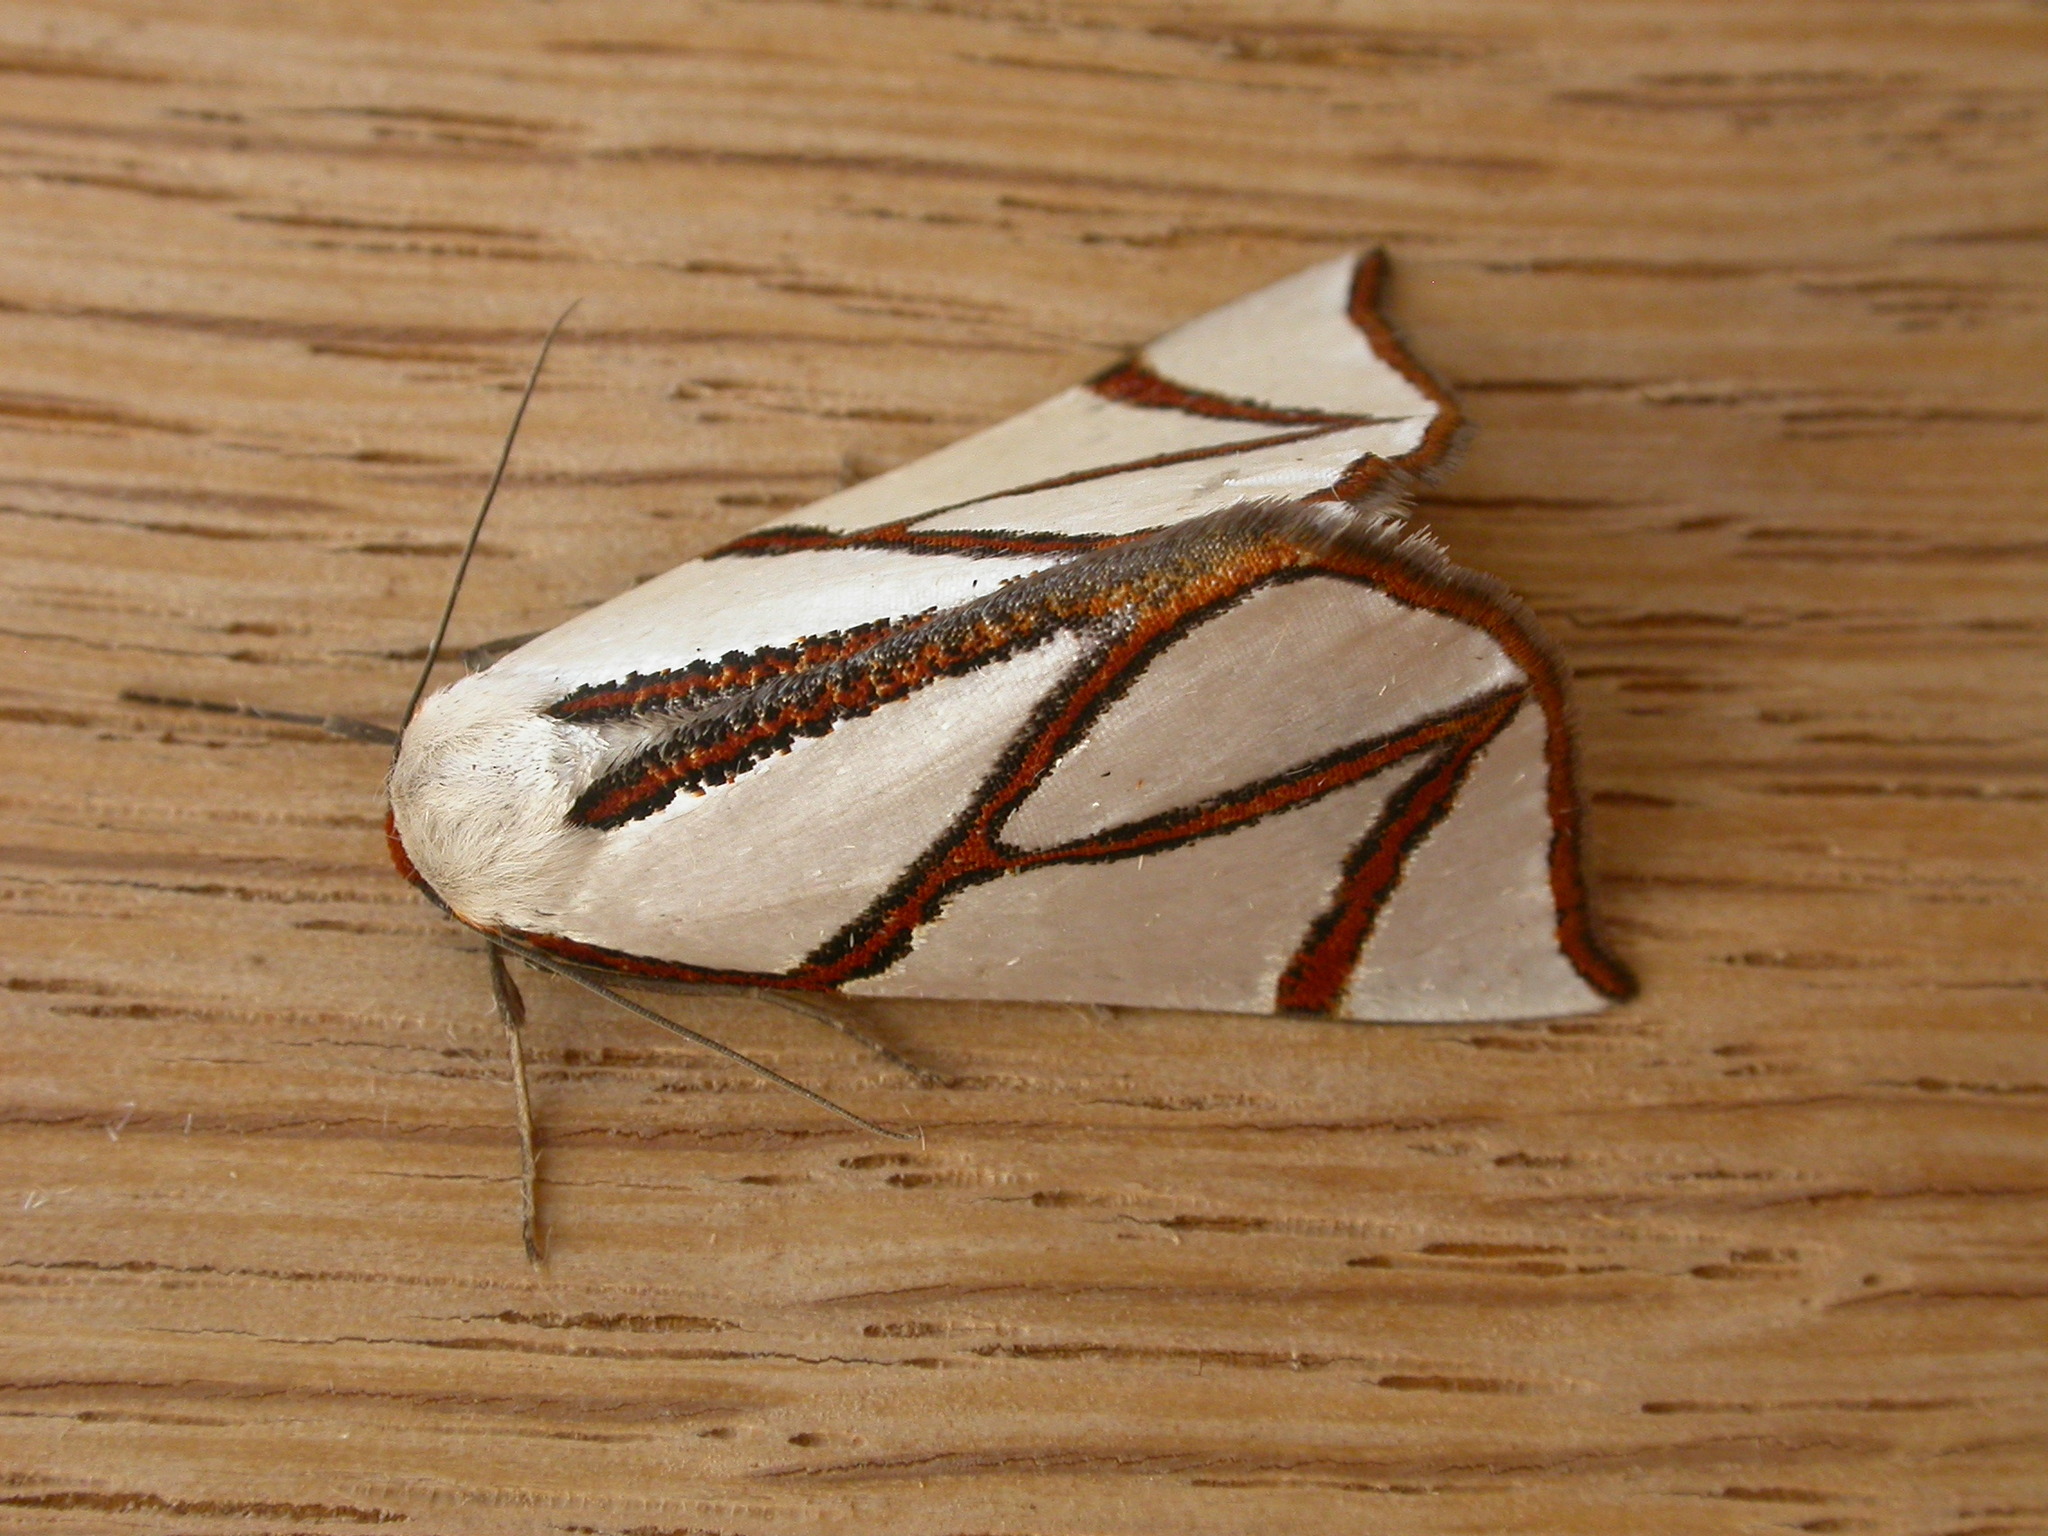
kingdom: Animalia
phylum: Arthropoda
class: Insecta
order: Lepidoptera
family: Geometridae
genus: Thalaina
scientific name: Thalaina clara
